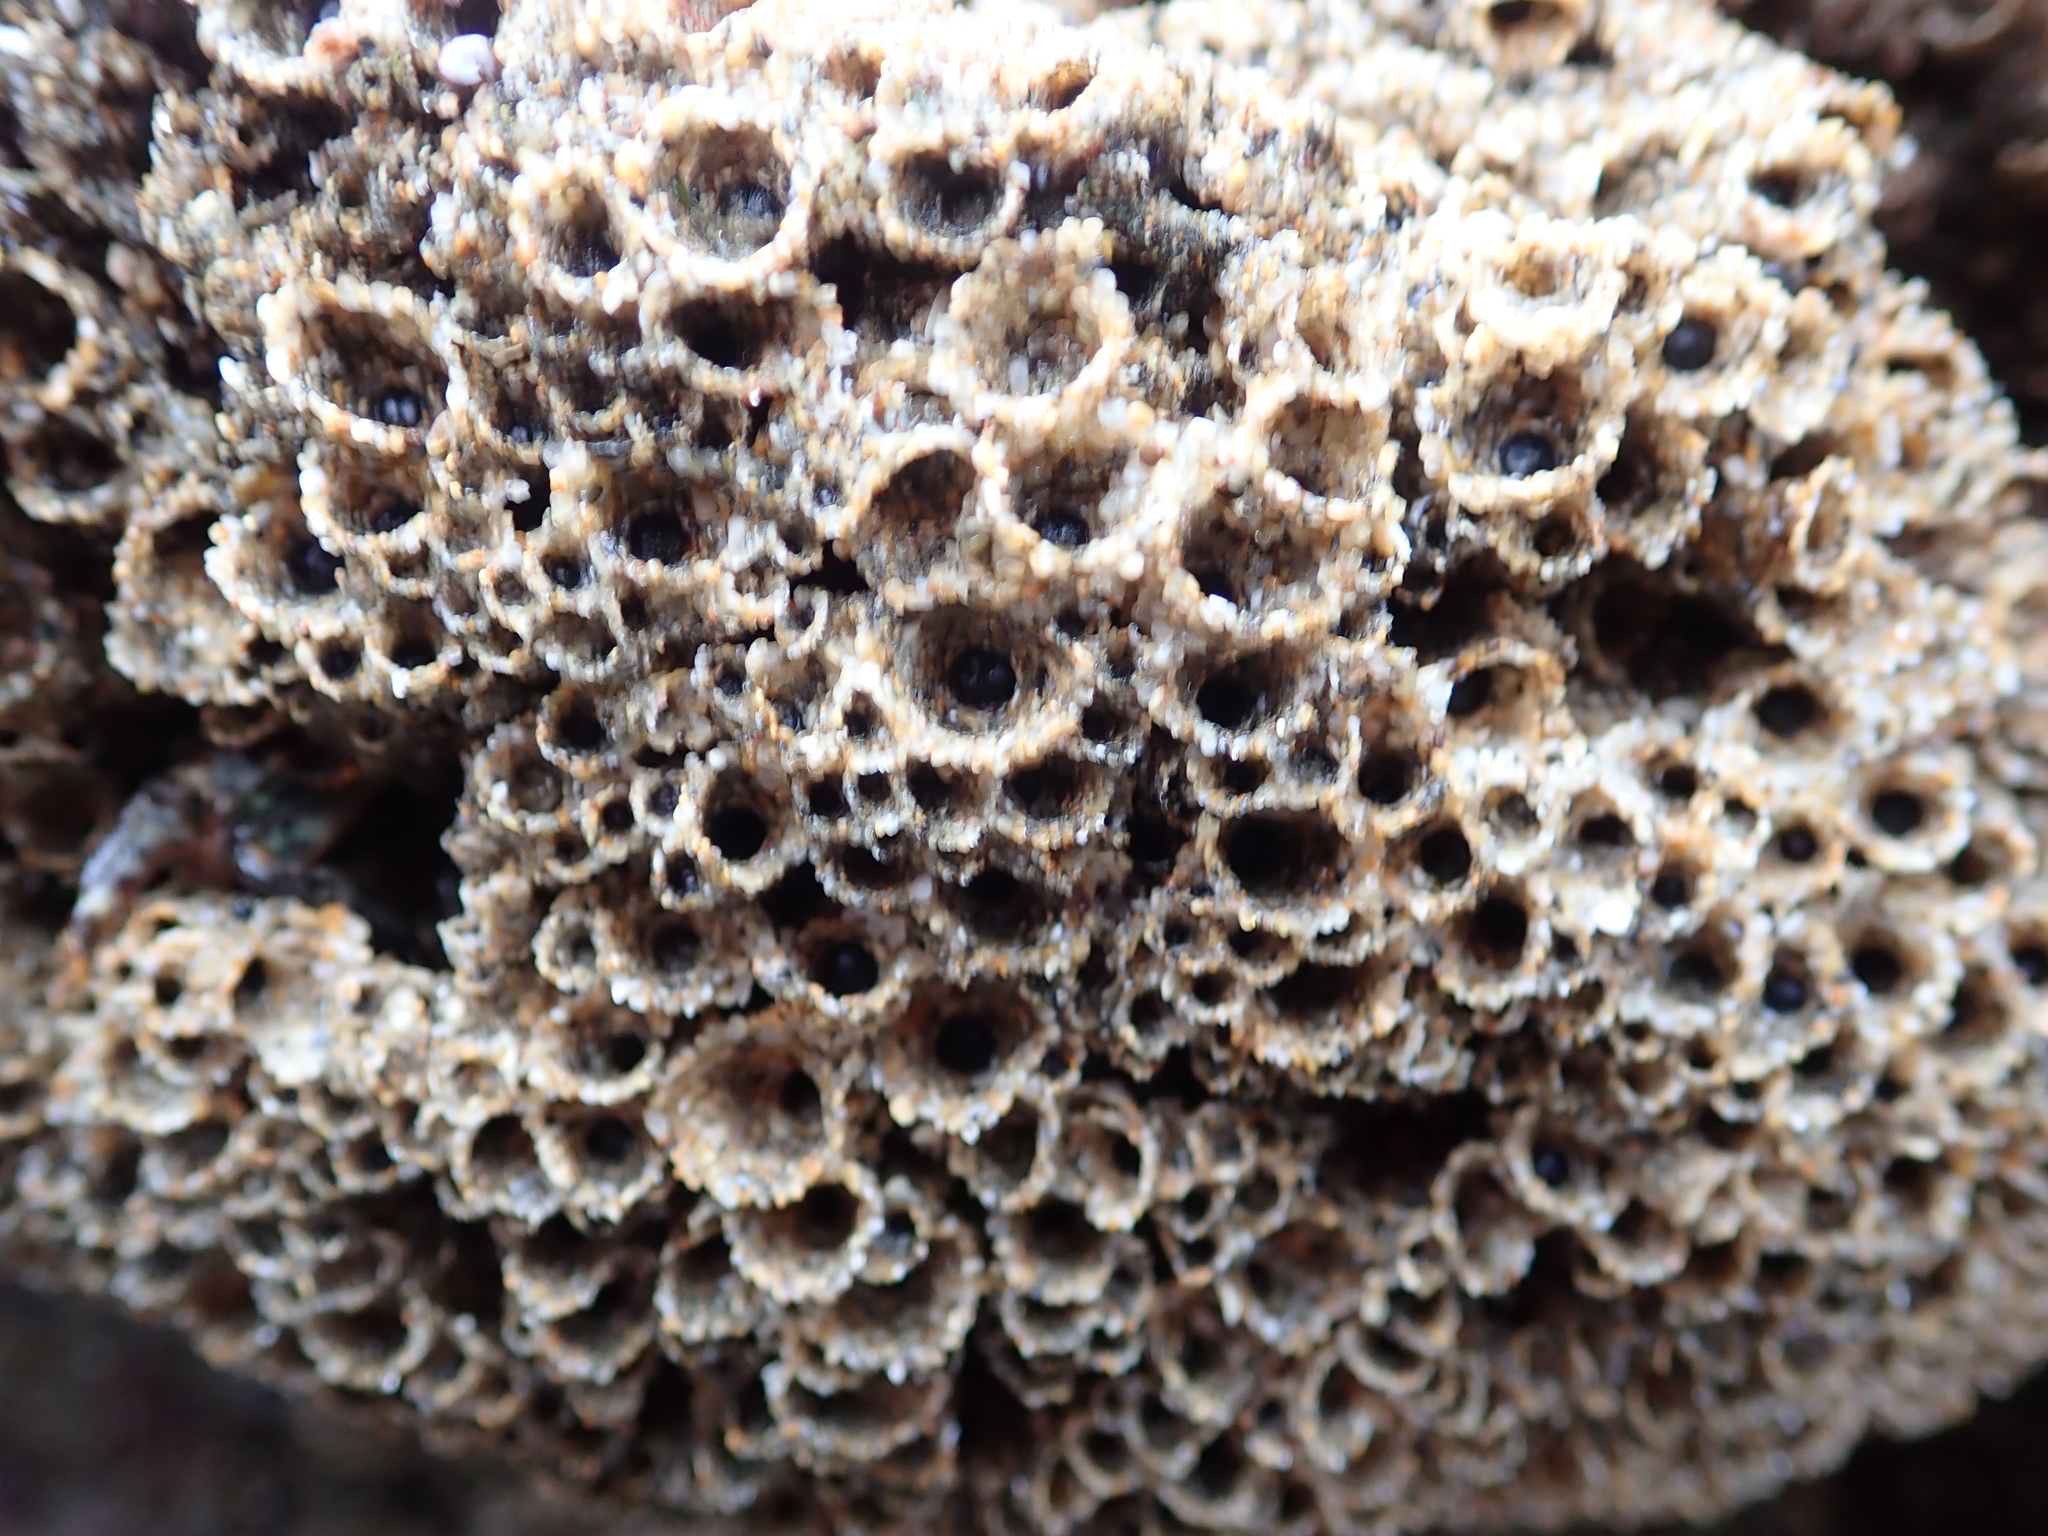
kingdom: Animalia
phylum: Annelida
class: Polychaeta
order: Sabellida
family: Sabellariidae
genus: Phragmatopoma
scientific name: Phragmatopoma californica
